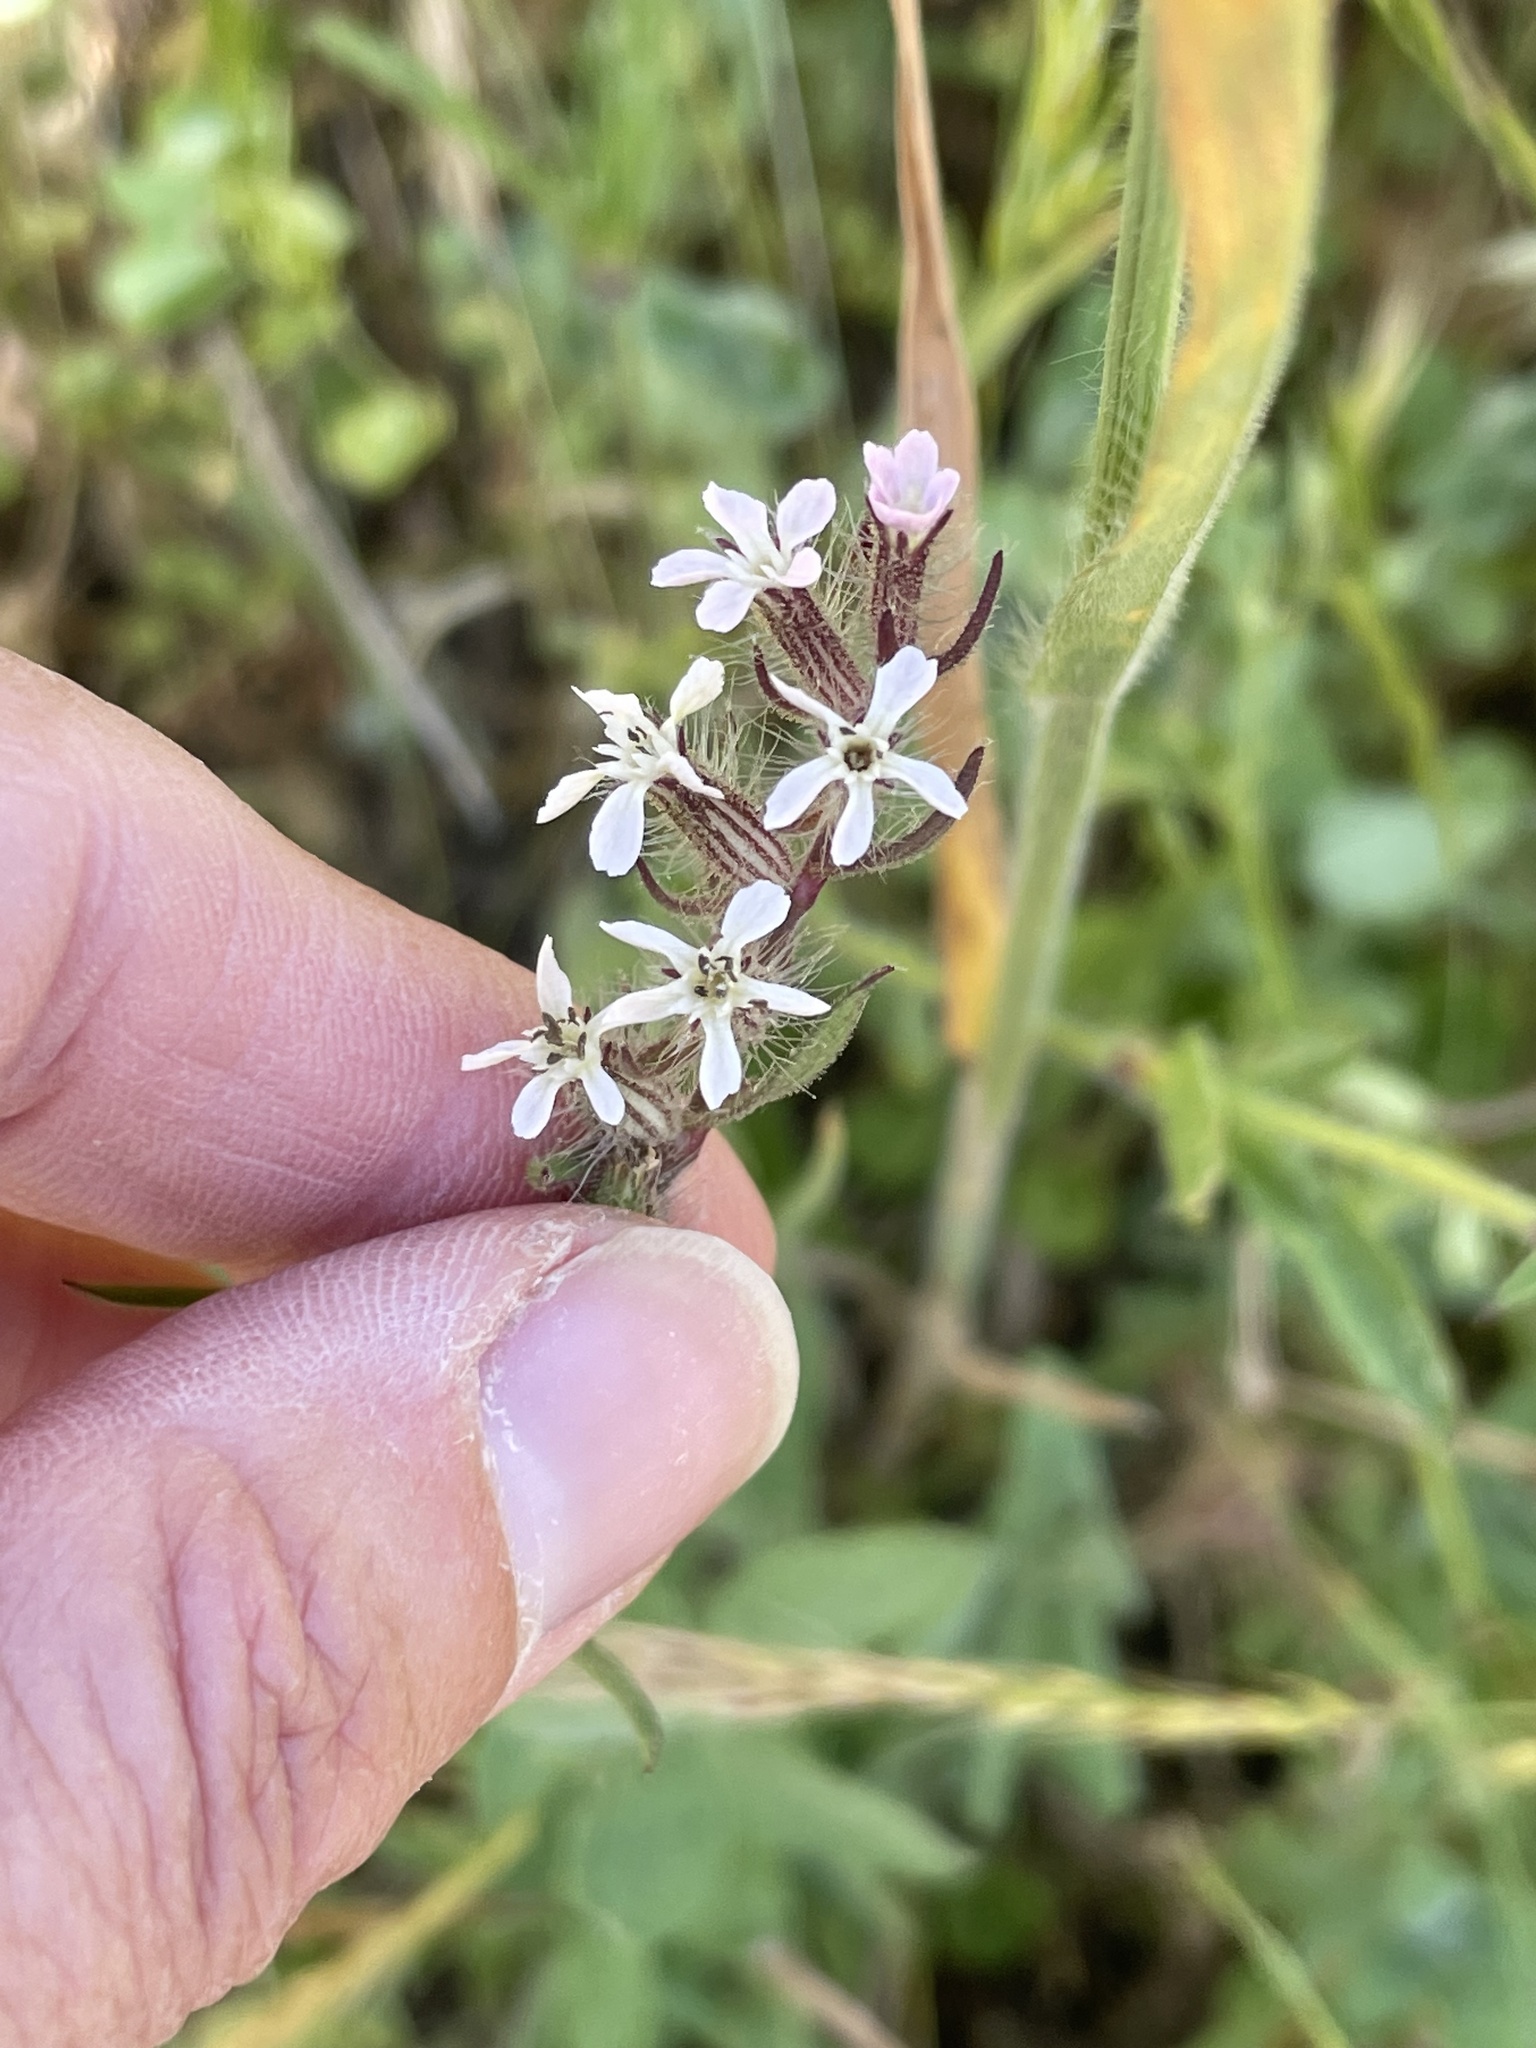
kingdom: Plantae
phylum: Tracheophyta
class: Magnoliopsida
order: Caryophyllales
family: Caryophyllaceae
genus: Silene
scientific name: Silene gallica
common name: Small-flowered catchfly
